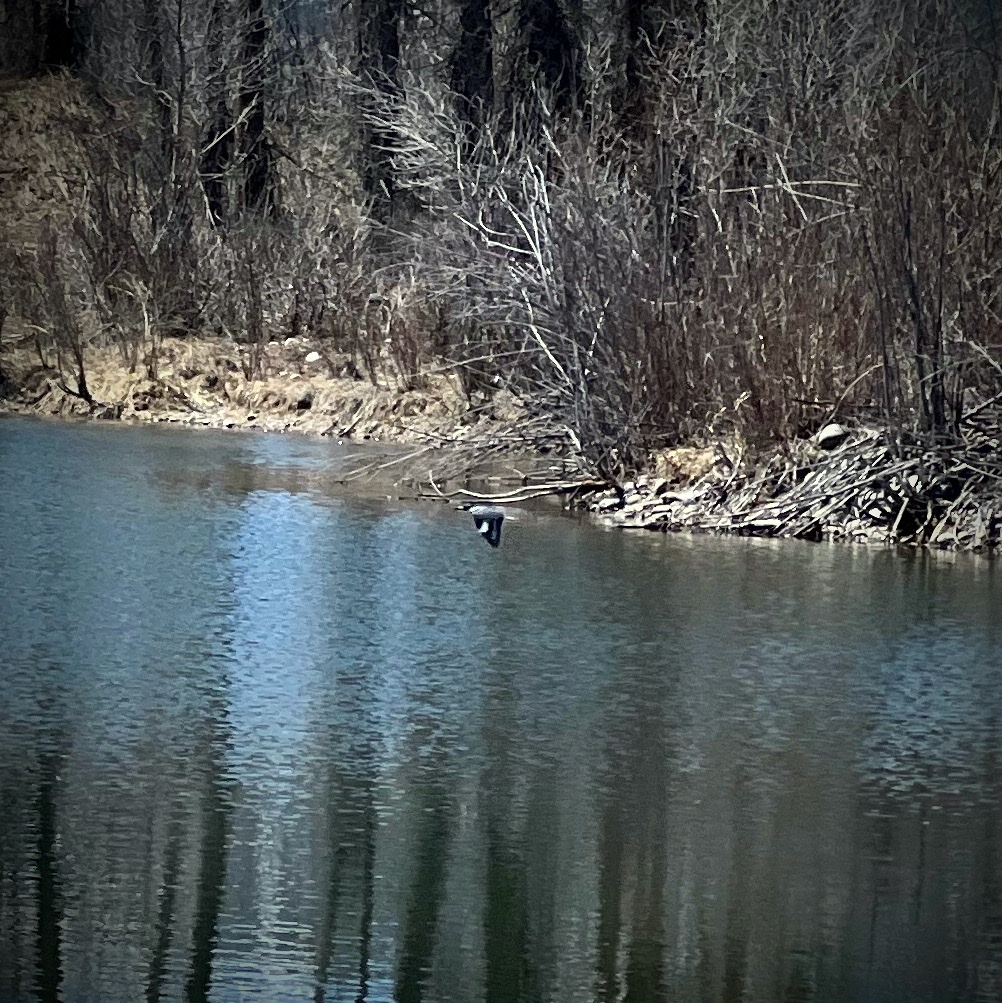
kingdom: Animalia
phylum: Chordata
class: Aves
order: Coraciiformes
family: Alcedinidae
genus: Megaceryle
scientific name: Megaceryle alcyon
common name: Belted kingfisher
